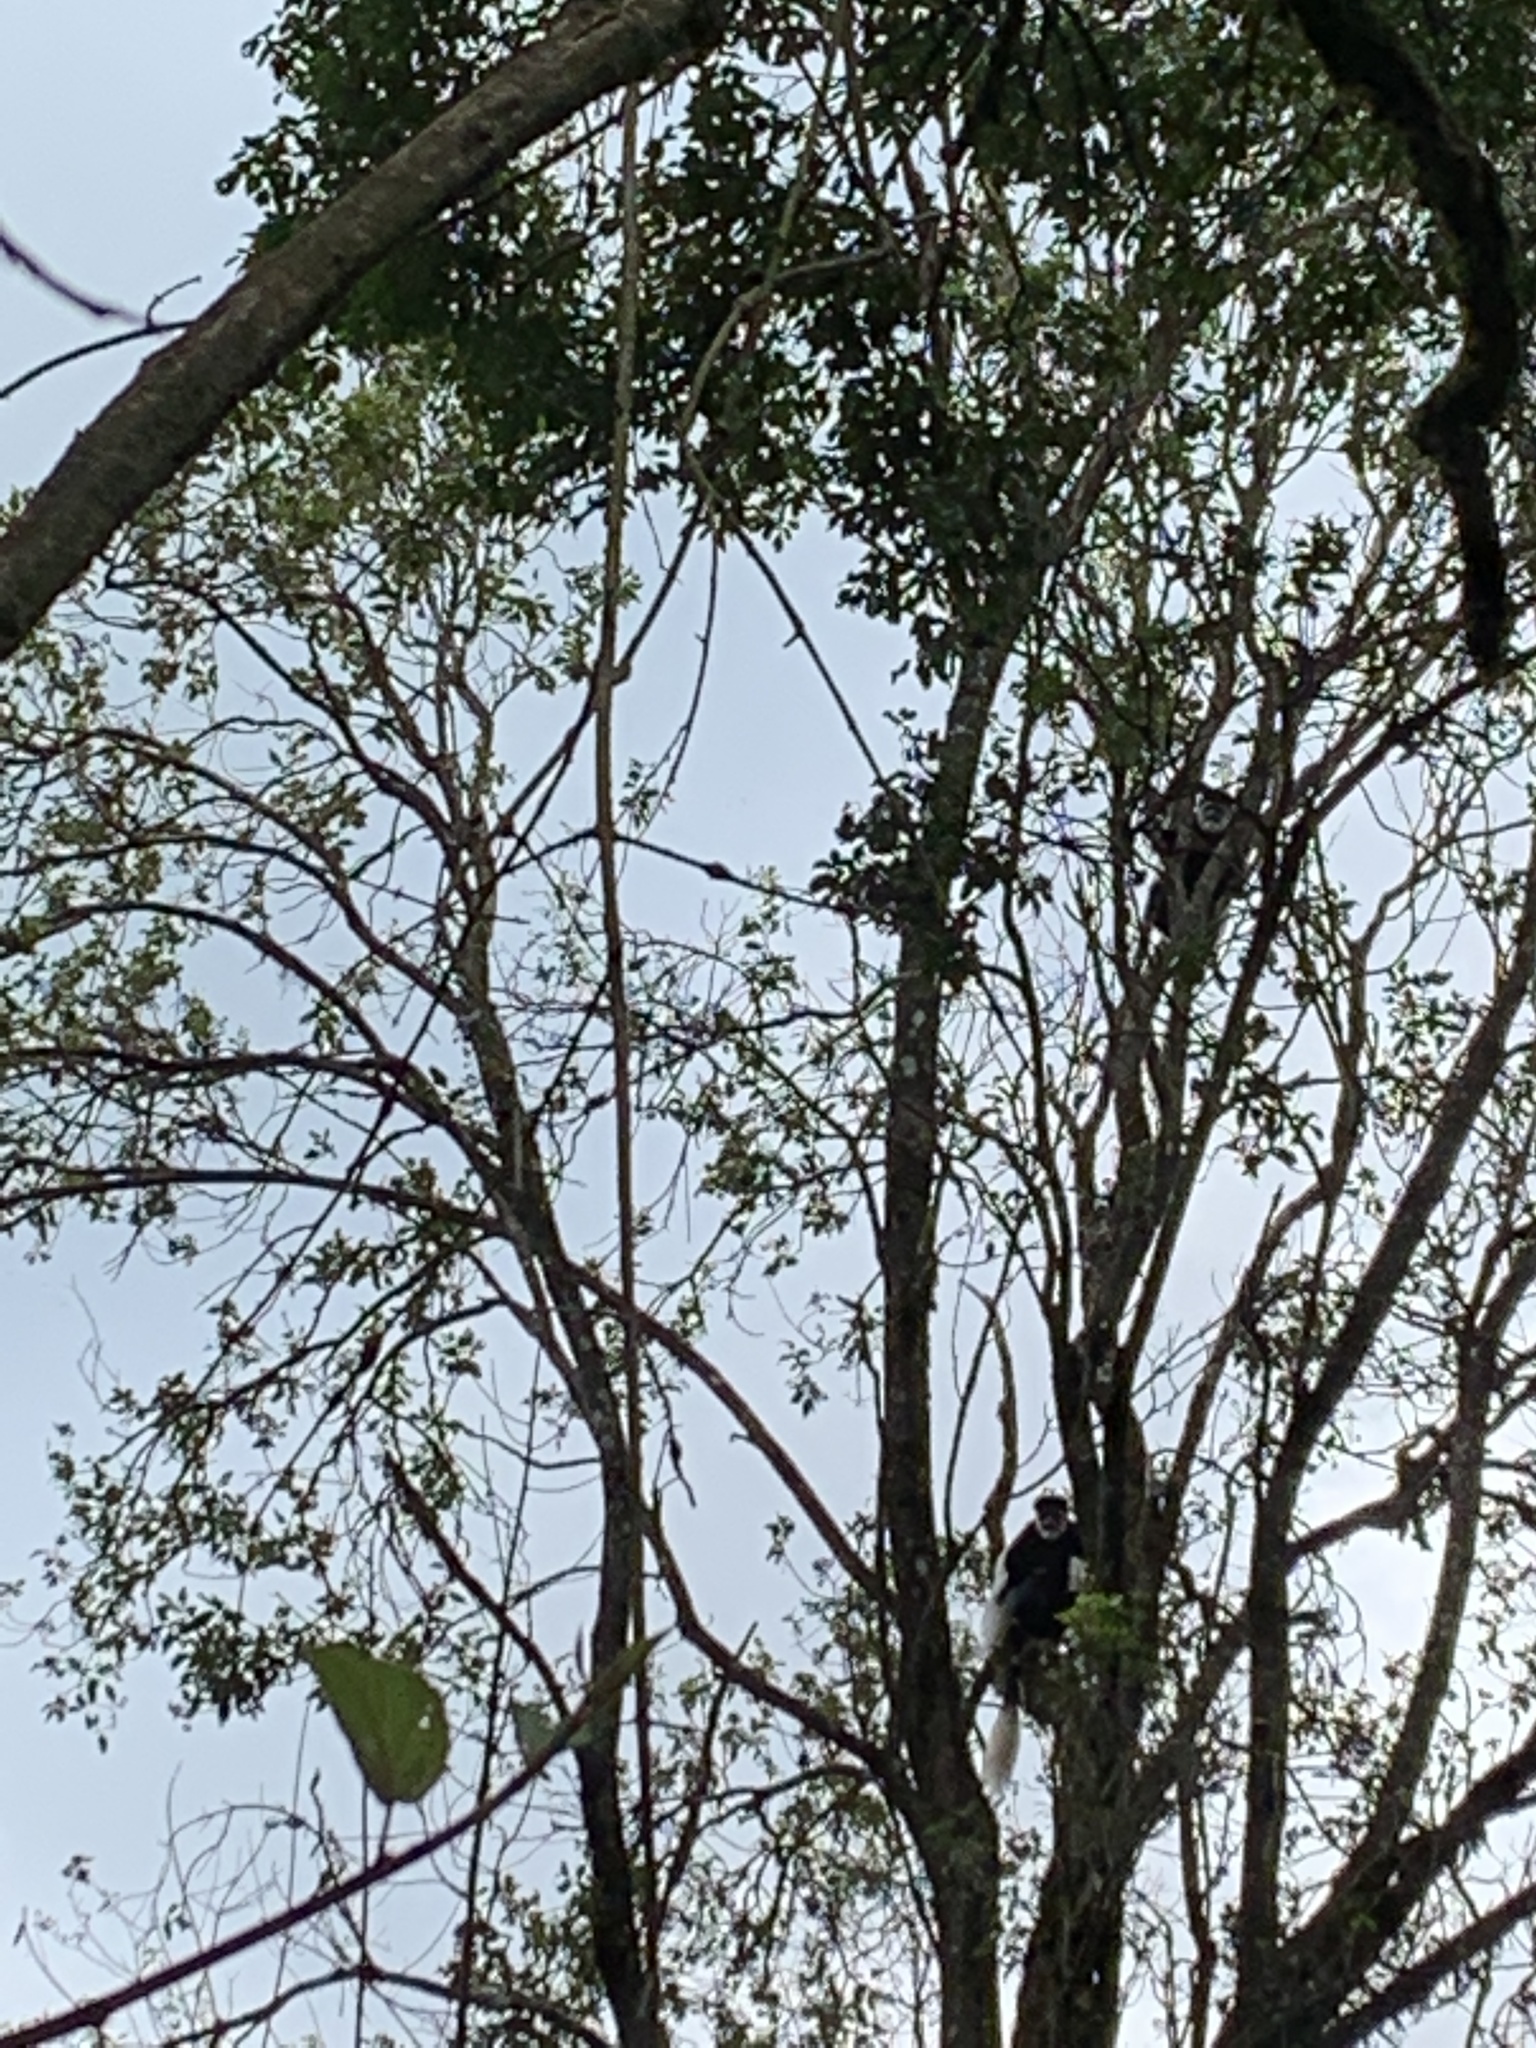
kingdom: Animalia
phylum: Chordata
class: Mammalia
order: Primates
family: Cercopithecidae
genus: Colobus
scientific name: Colobus guereza
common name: Mantled guereza
